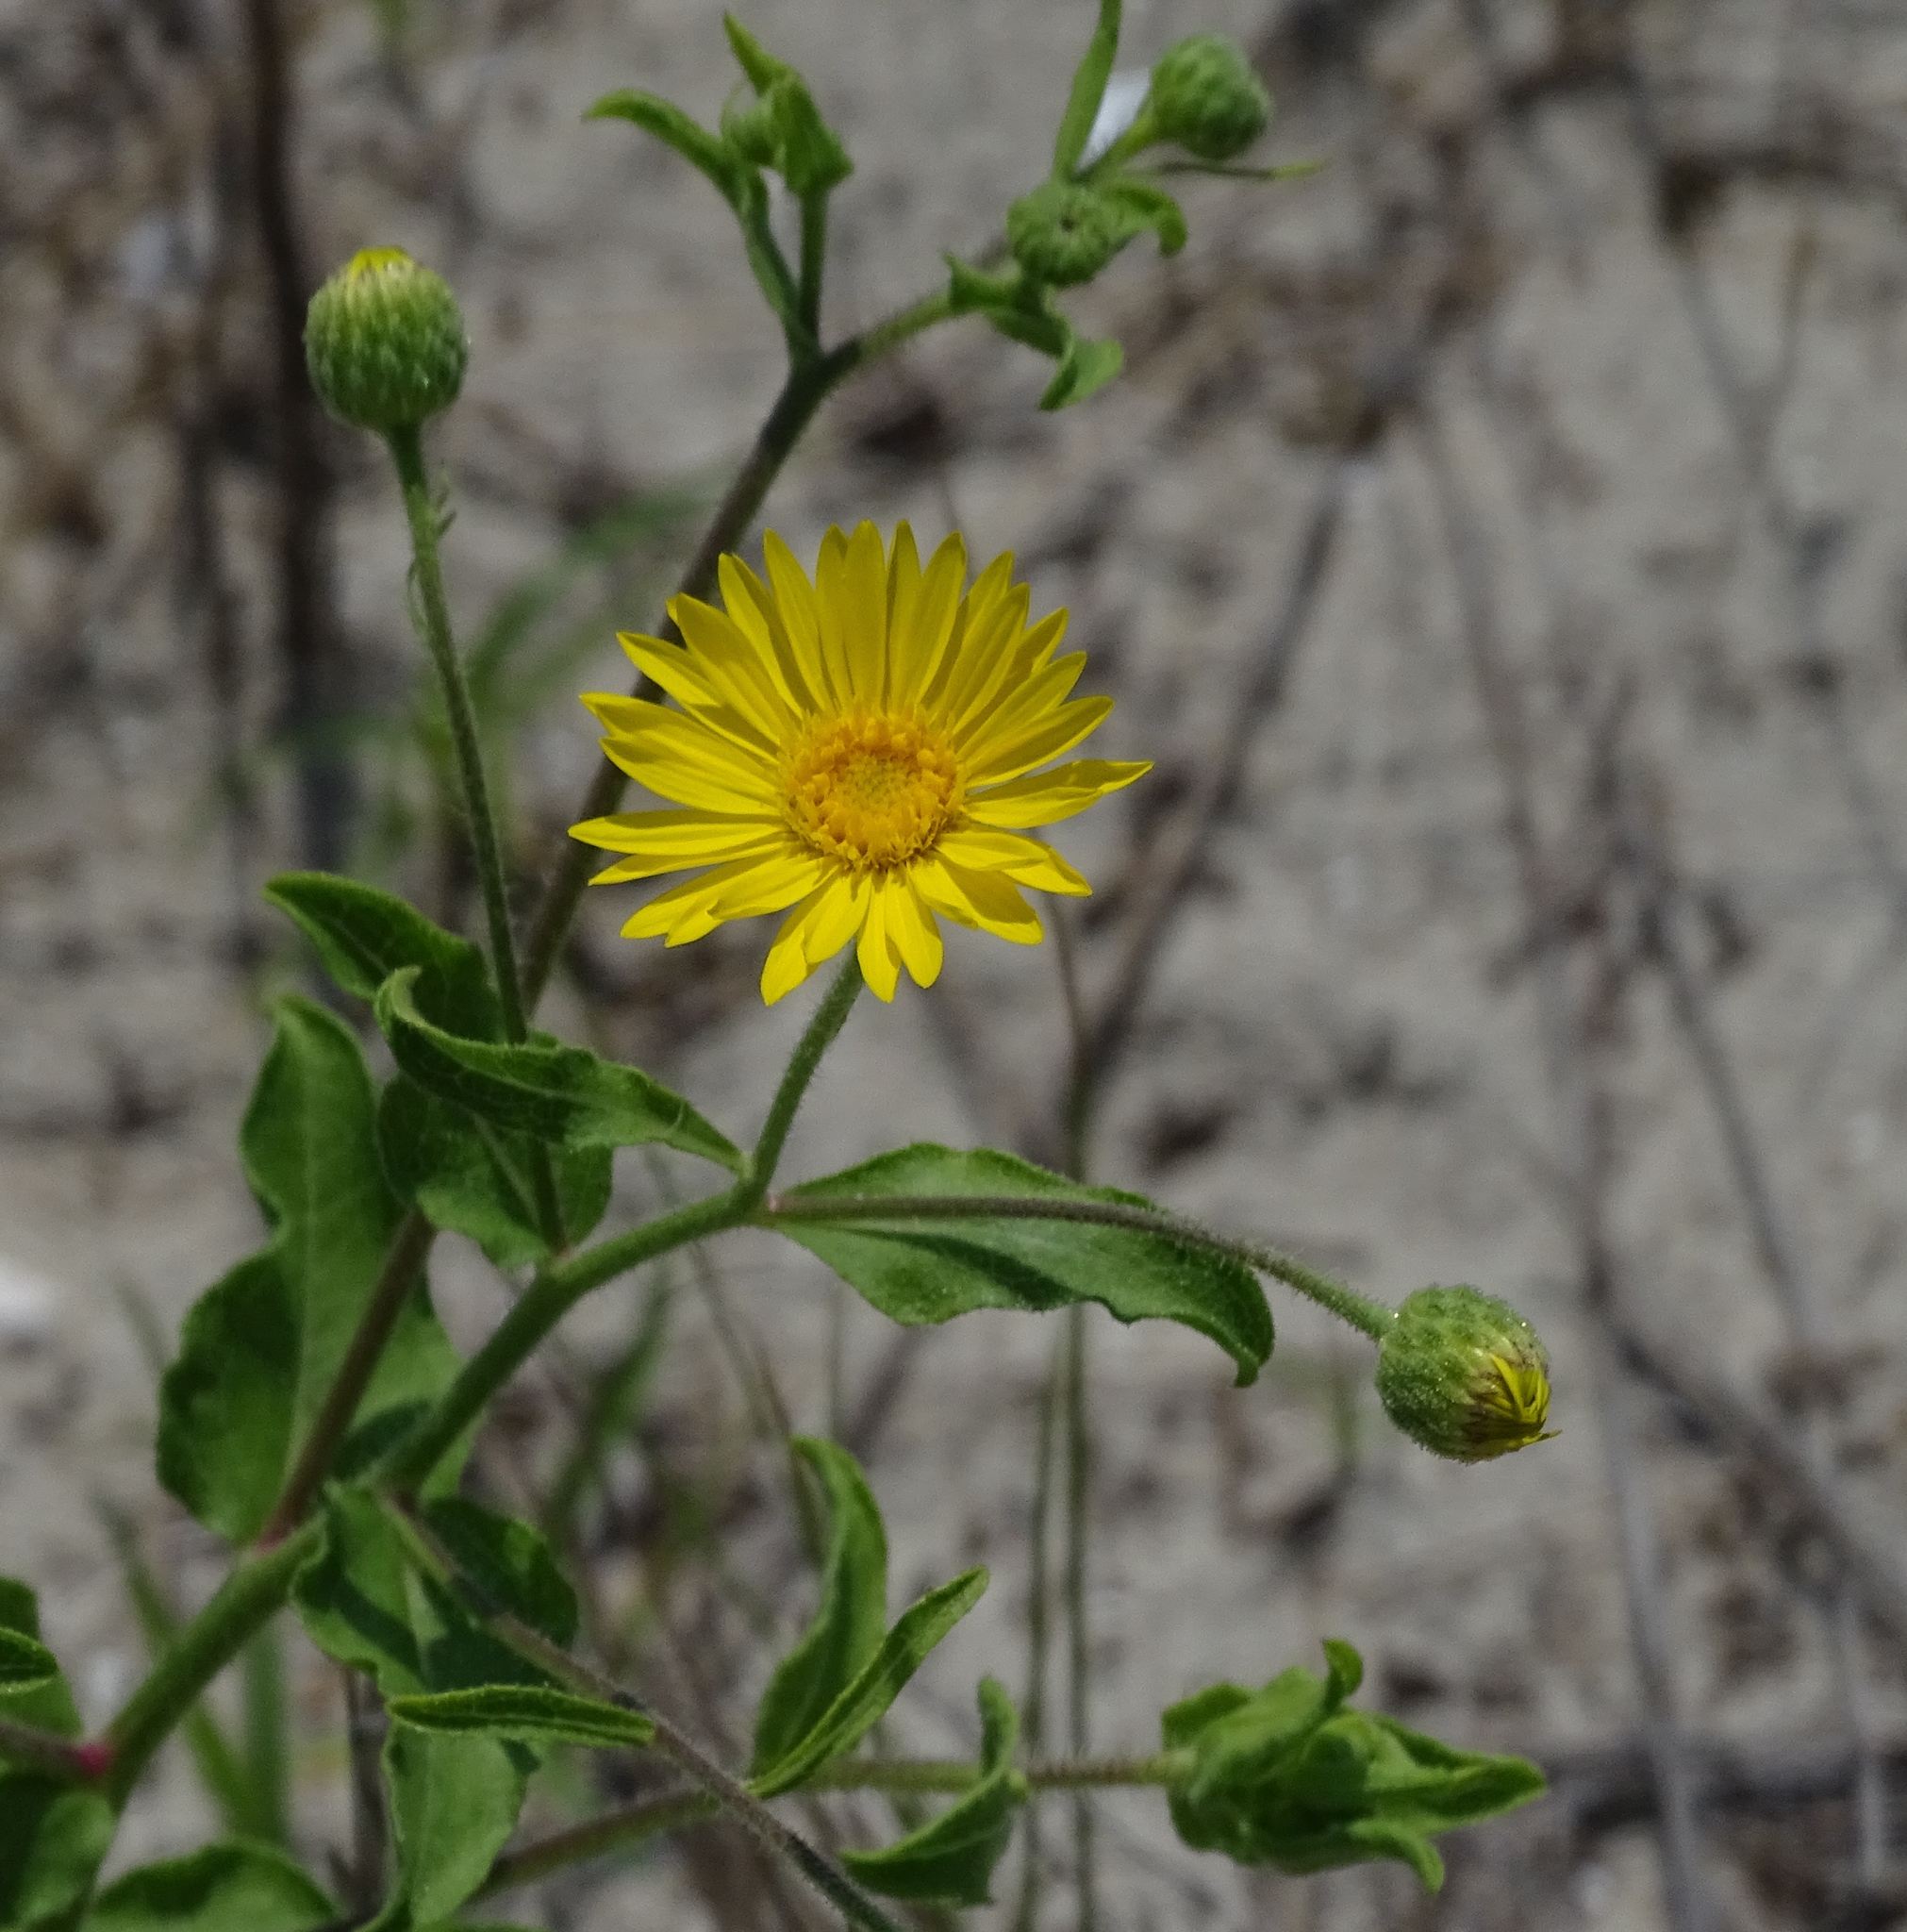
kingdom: Plantae
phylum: Tracheophyta
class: Magnoliopsida
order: Asterales
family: Asteraceae
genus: Heterotheca
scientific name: Heterotheca subaxillaris
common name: Camphorweed
